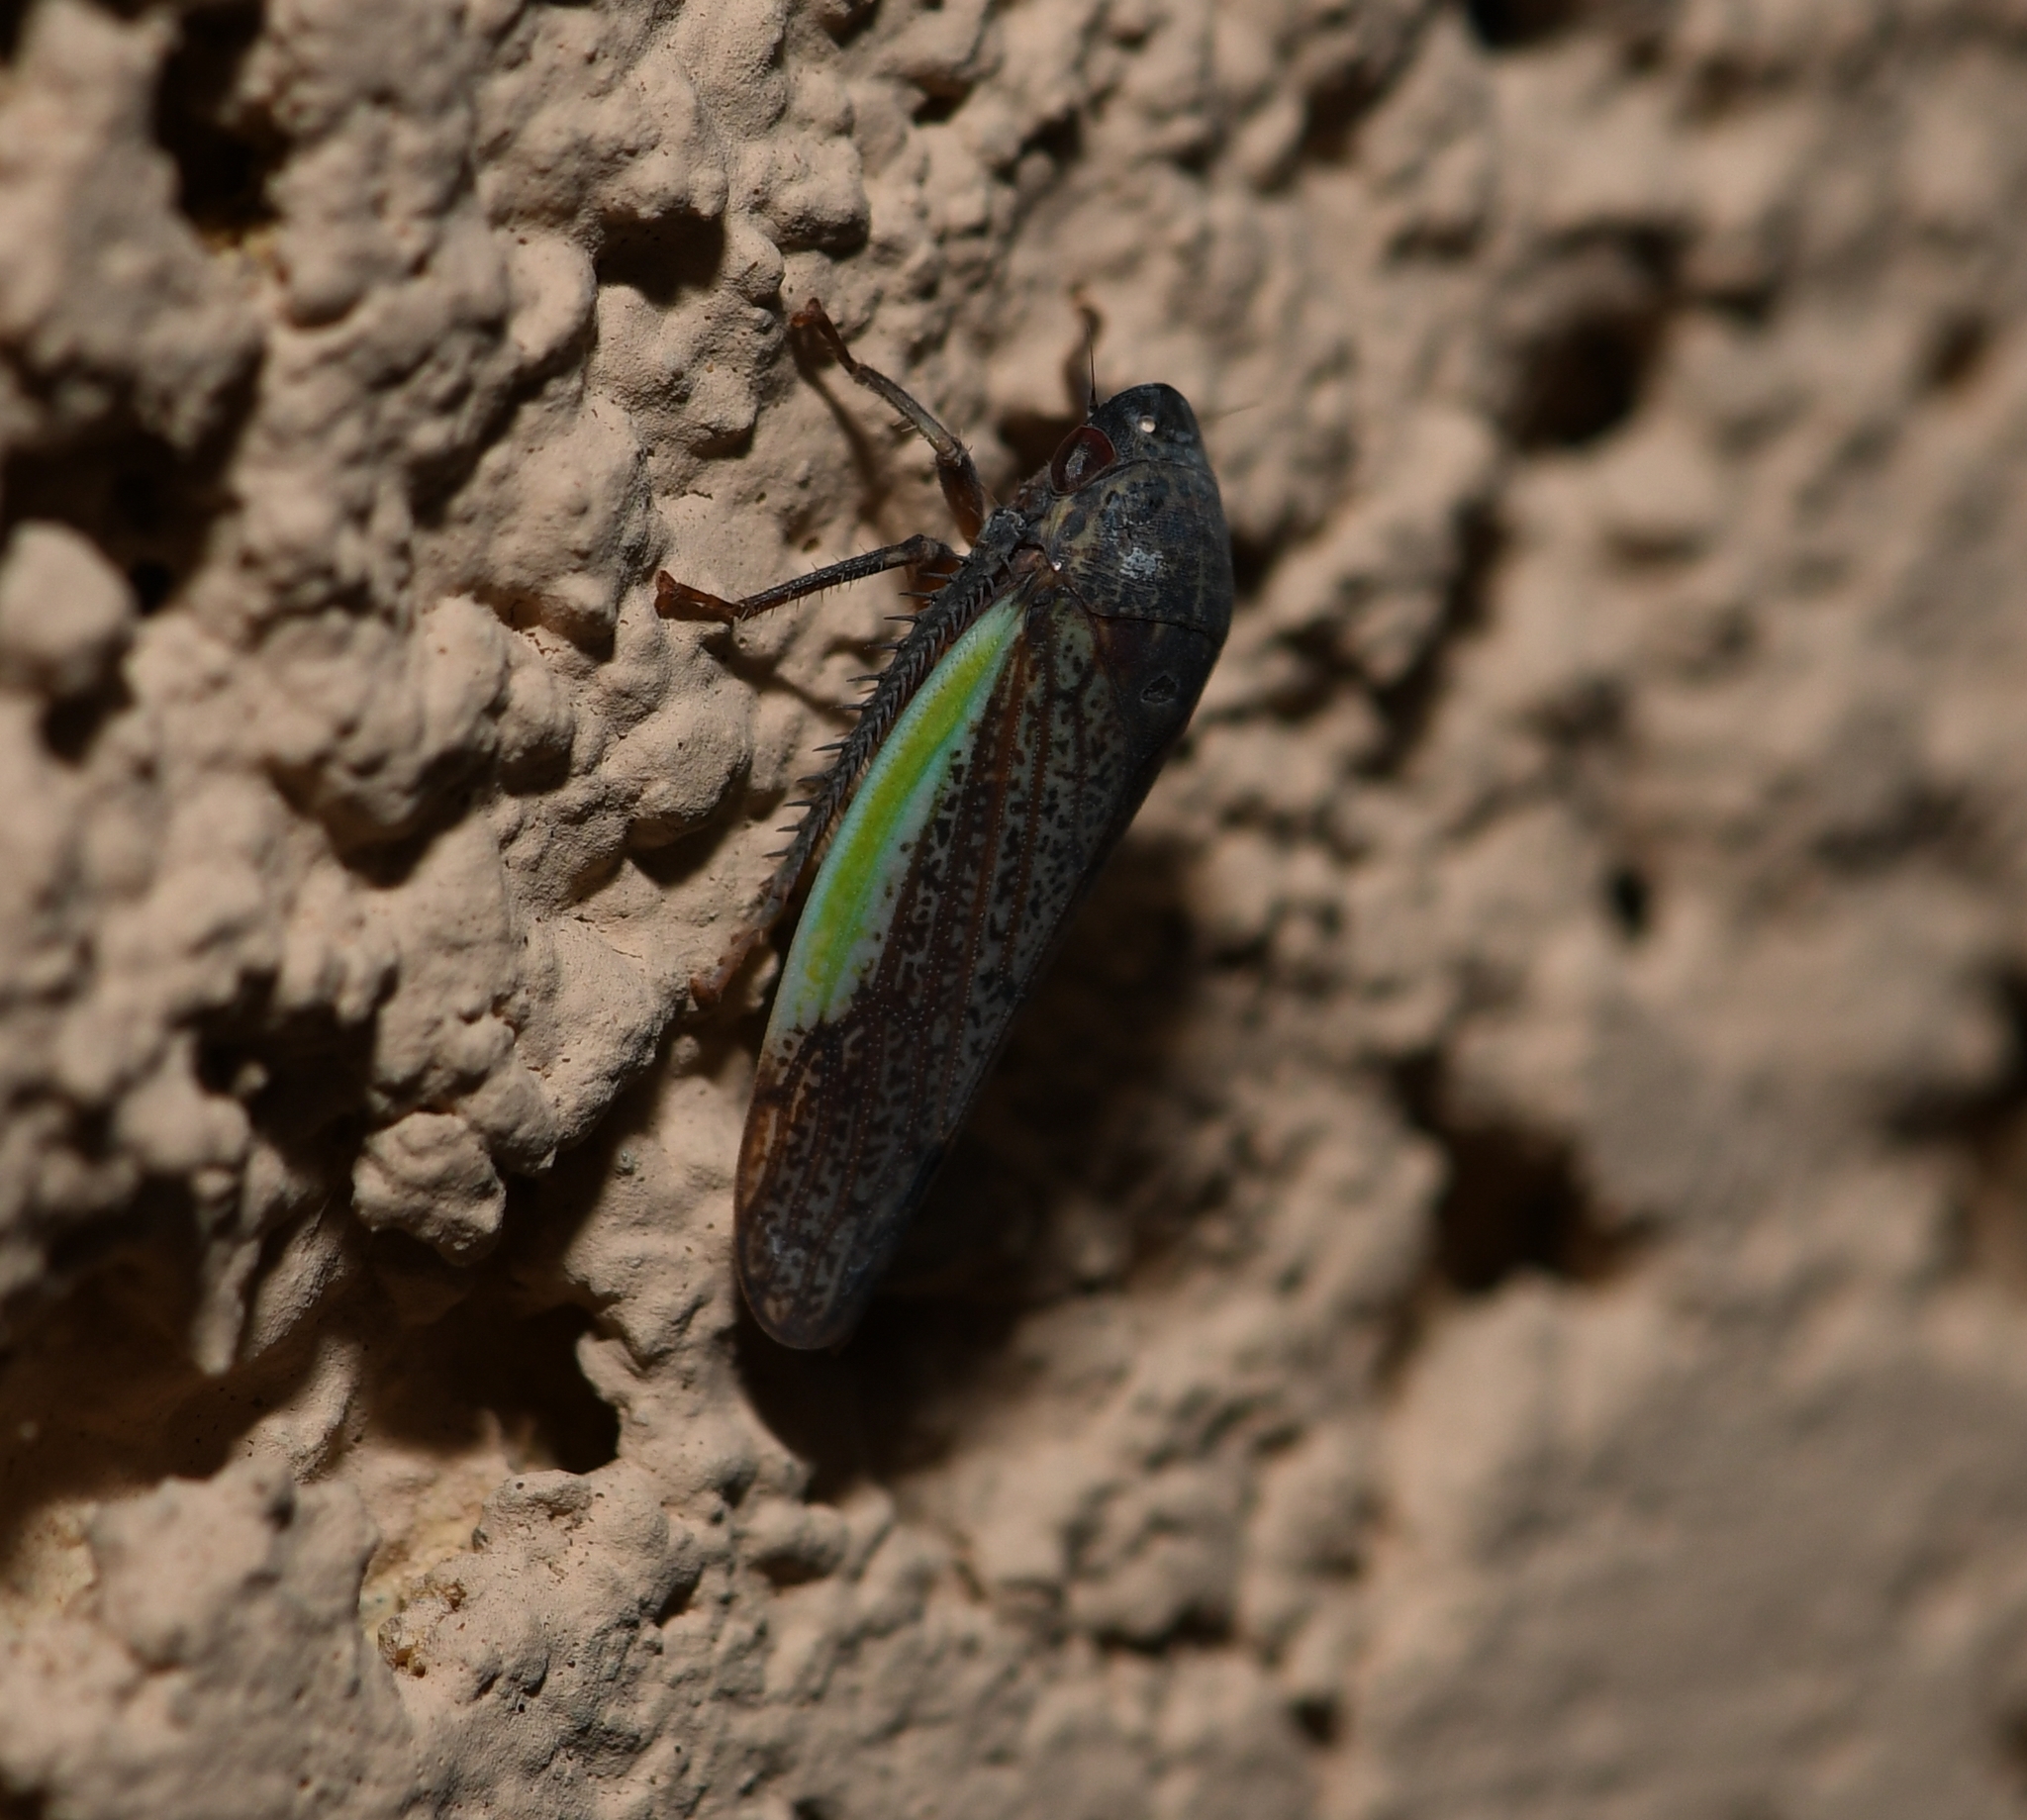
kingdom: Animalia
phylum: Arthropoda
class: Insecta
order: Hemiptera
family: Cicadellidae
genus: Hamana
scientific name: Hamana gelbata
